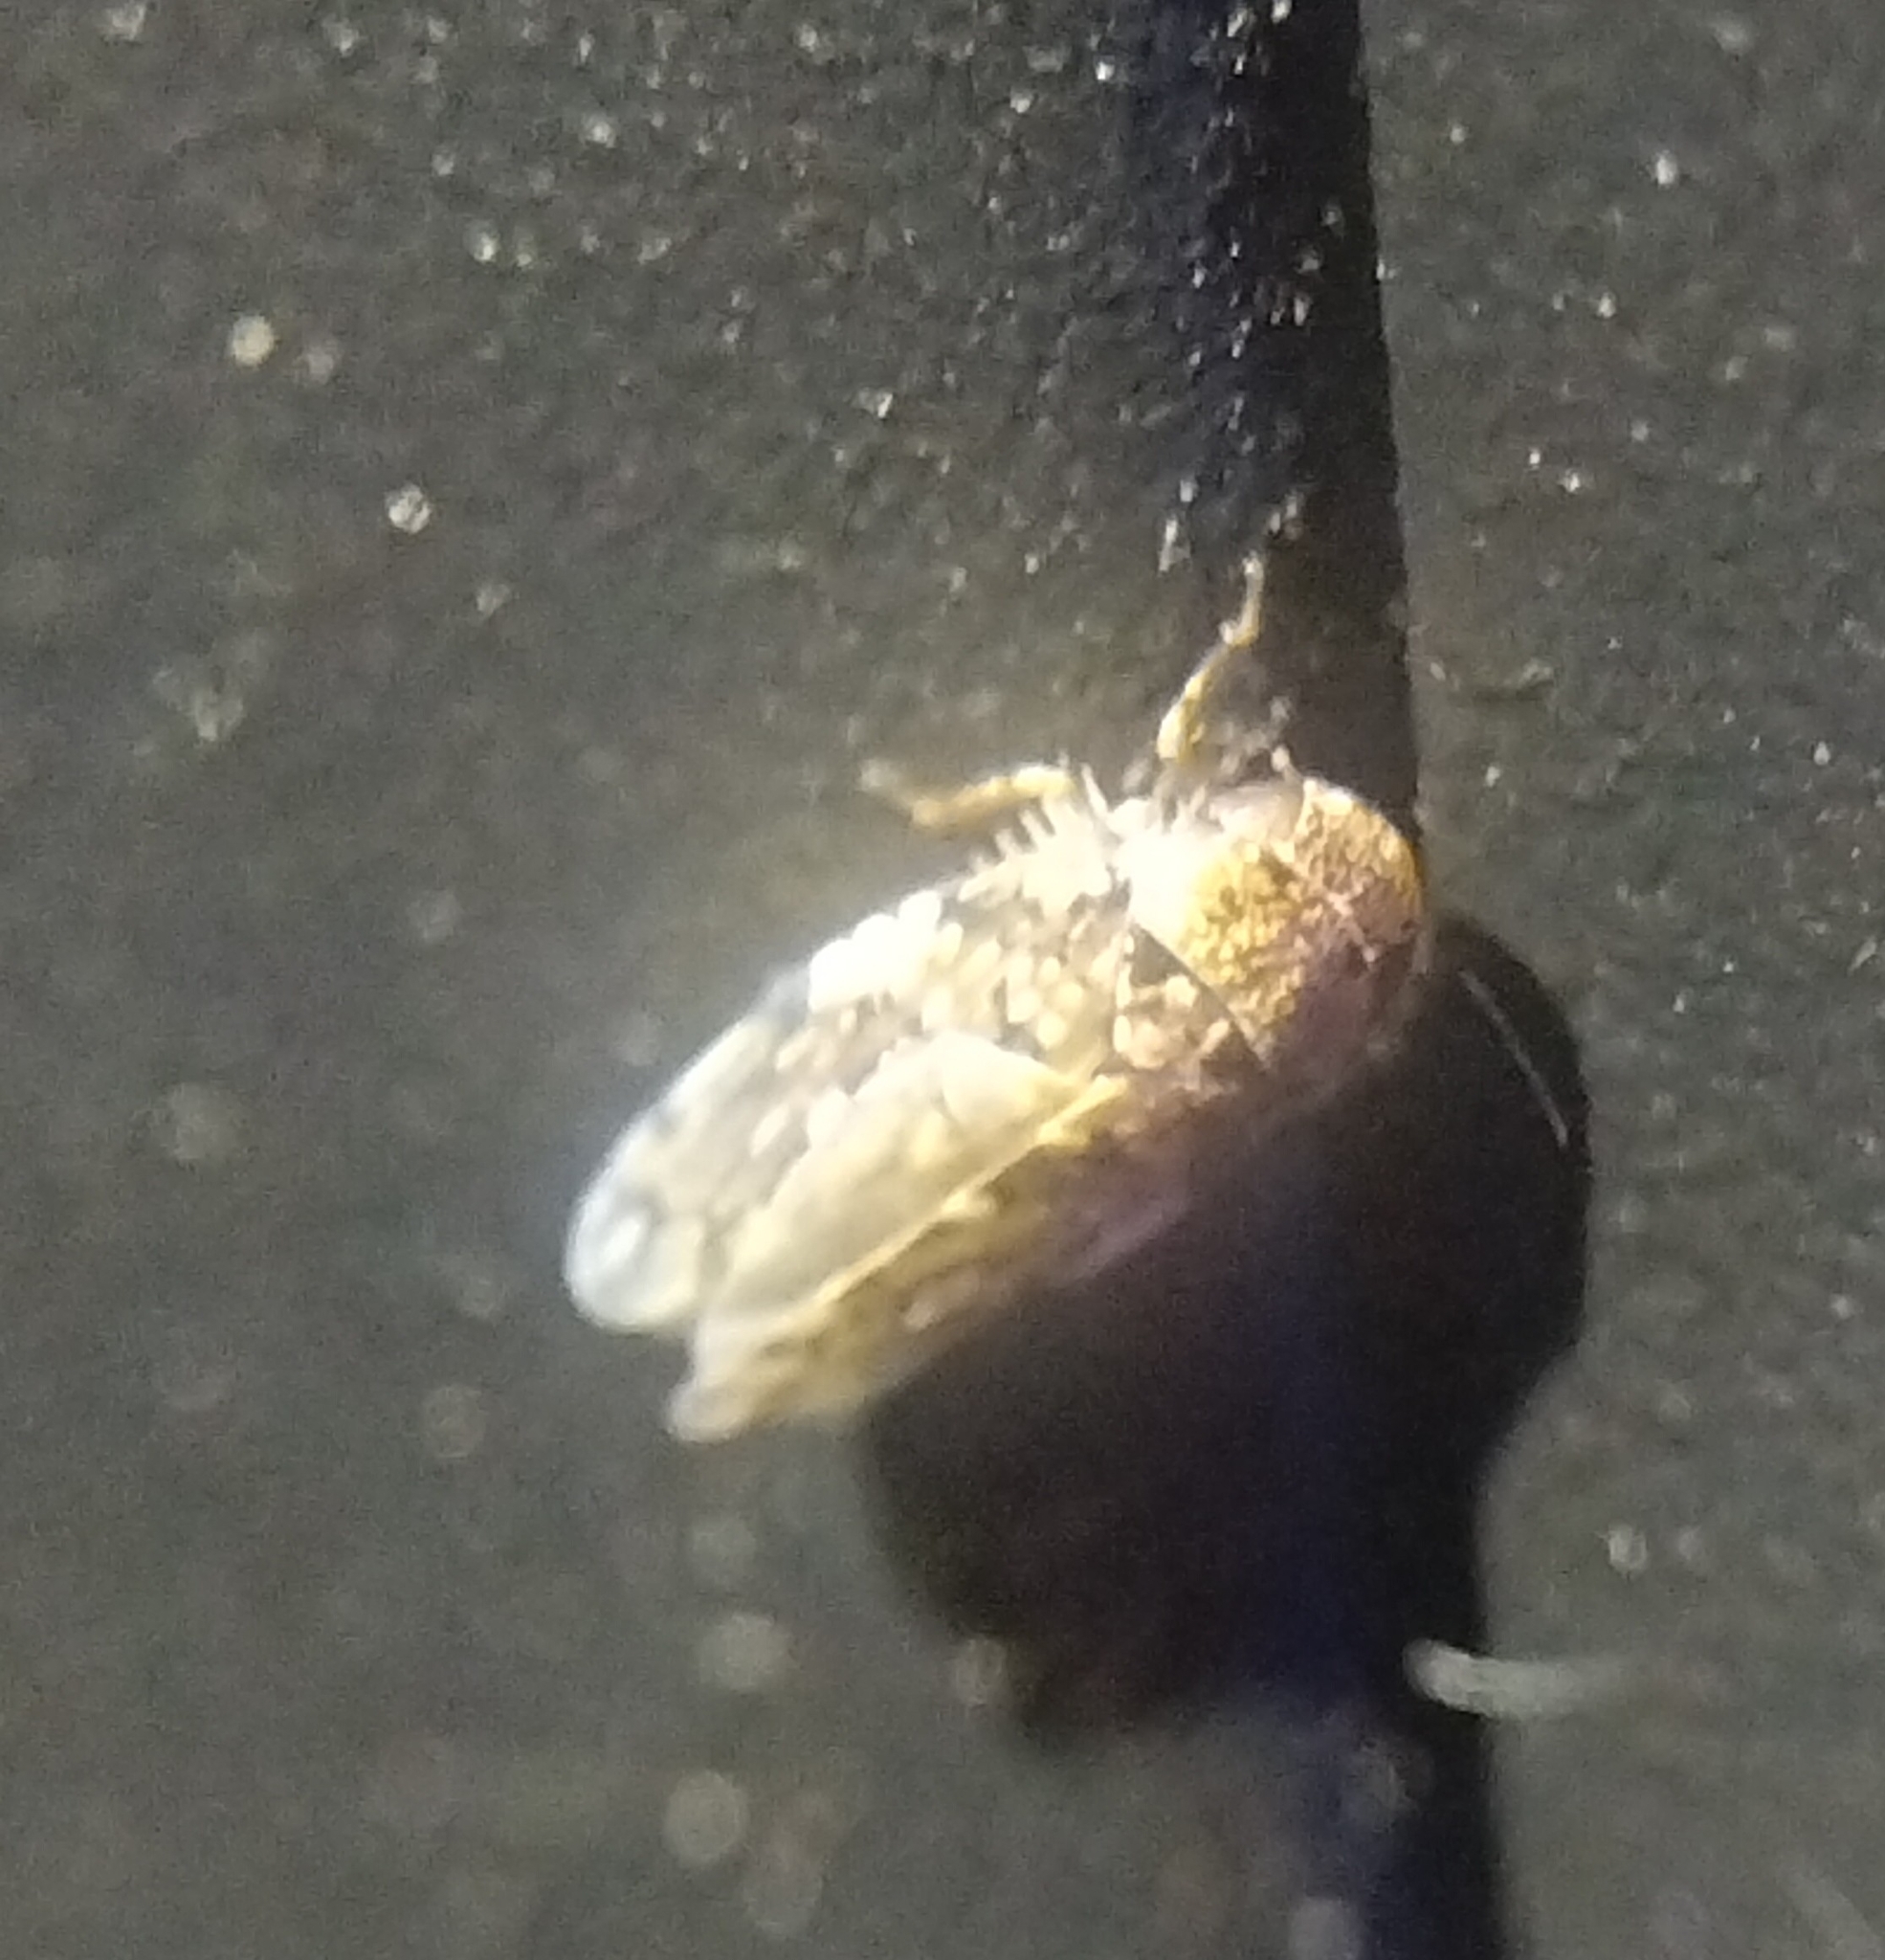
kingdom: Animalia
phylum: Arthropoda
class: Insecta
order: Hemiptera
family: Cicadellidae
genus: Xestocephalus
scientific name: Xestocephalus tessellatus
